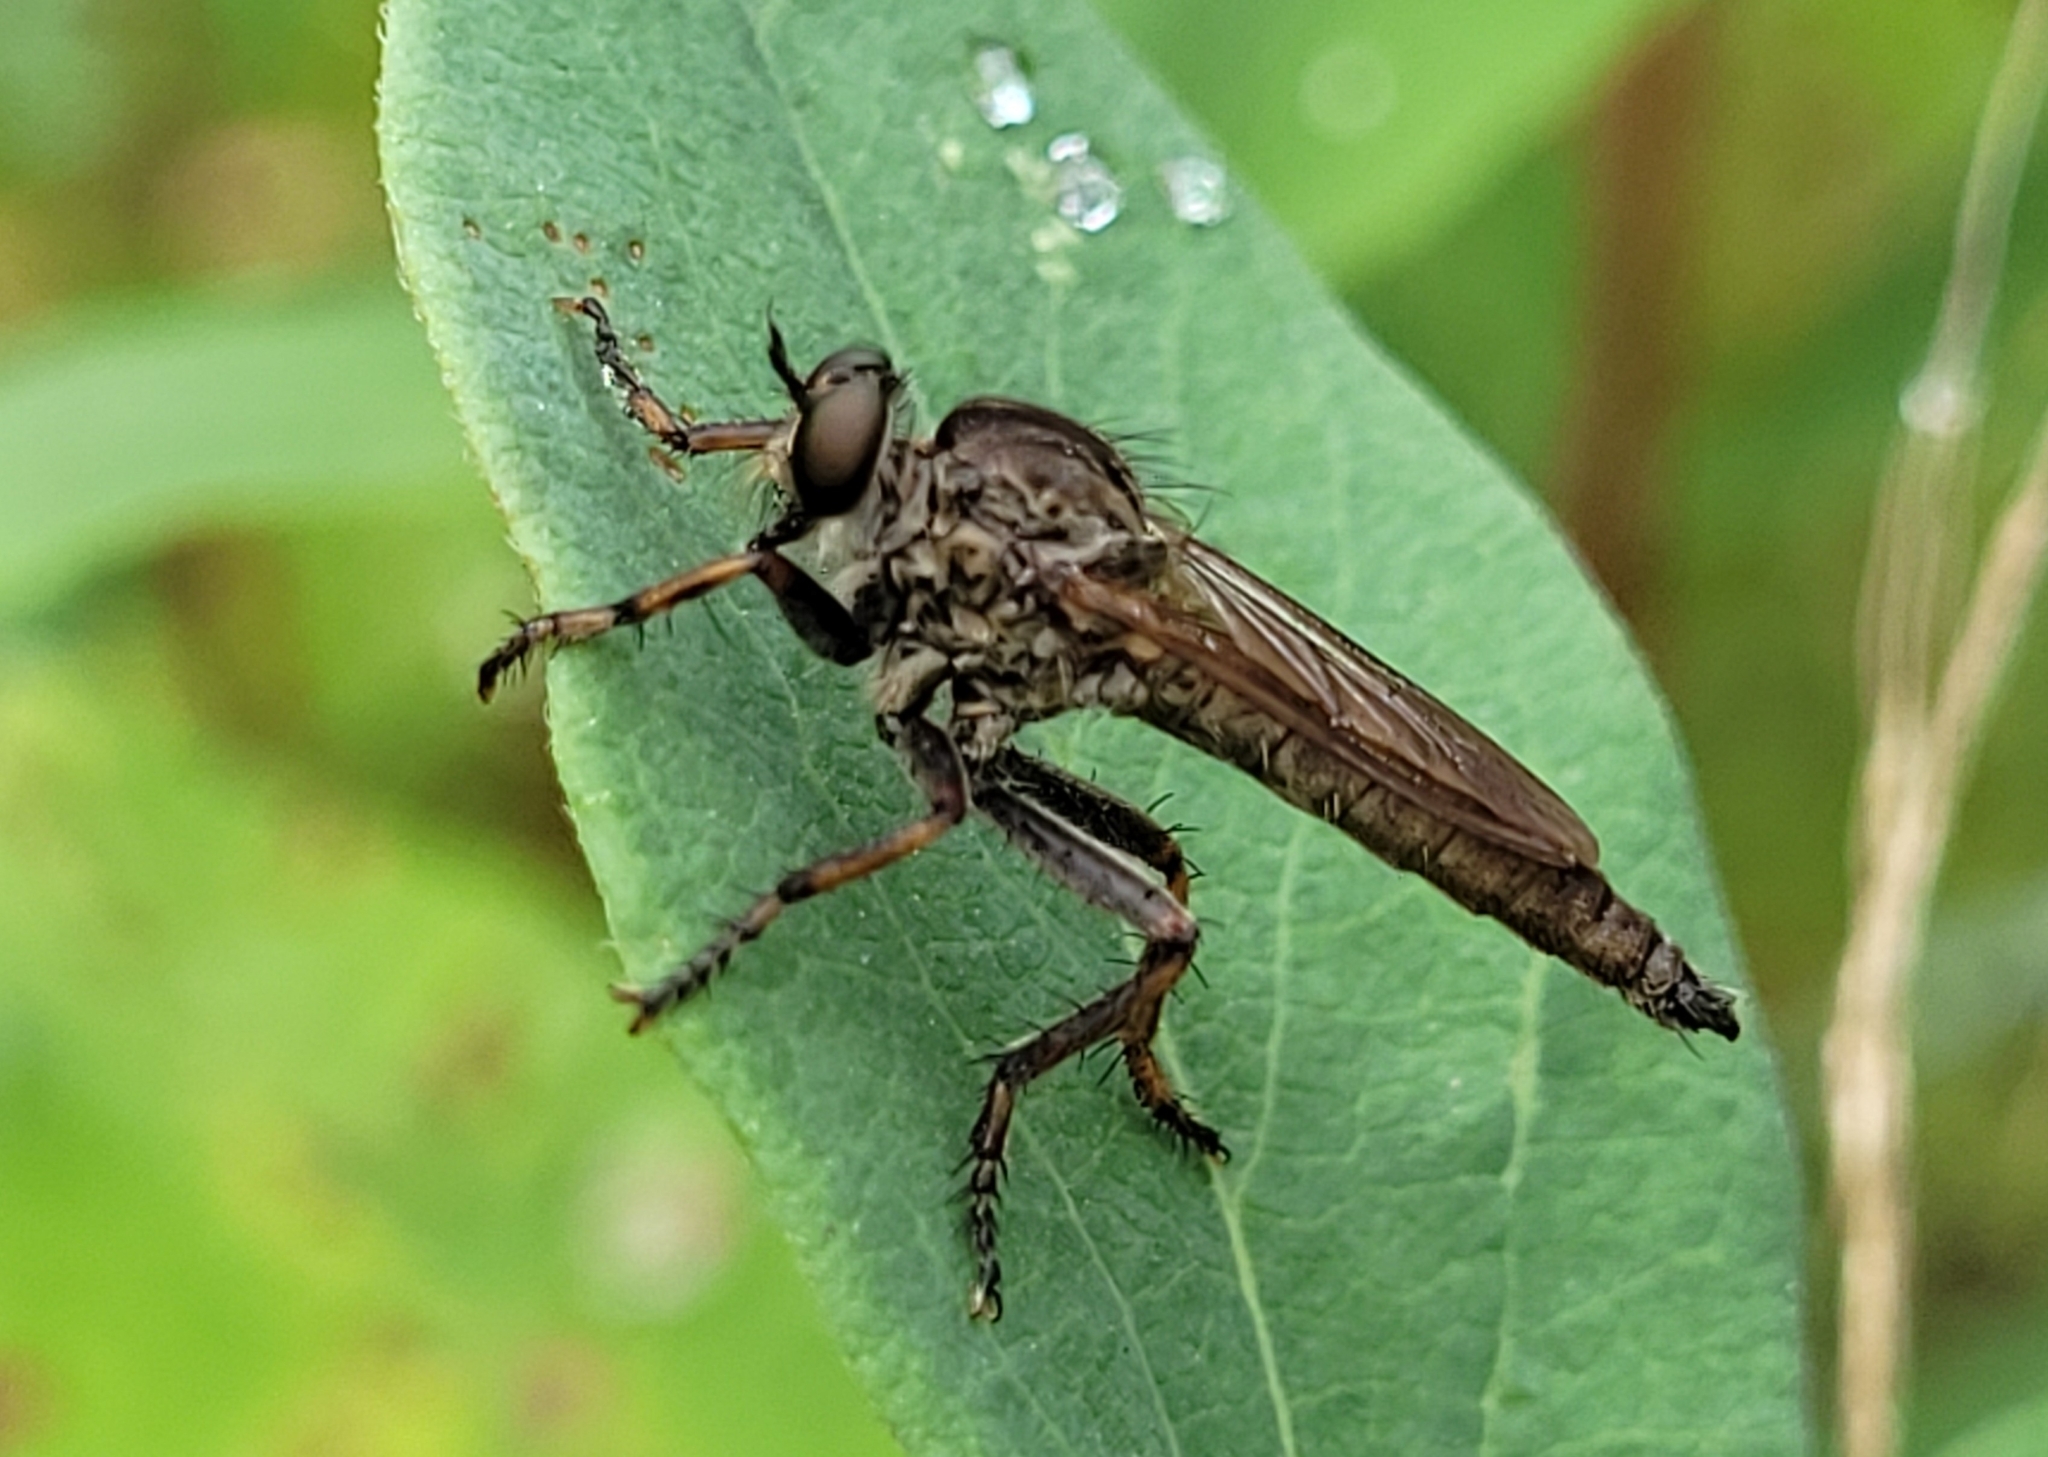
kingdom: Animalia
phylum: Arthropoda
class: Insecta
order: Diptera
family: Asilidae
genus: Machimus
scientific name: Machimus snowii
